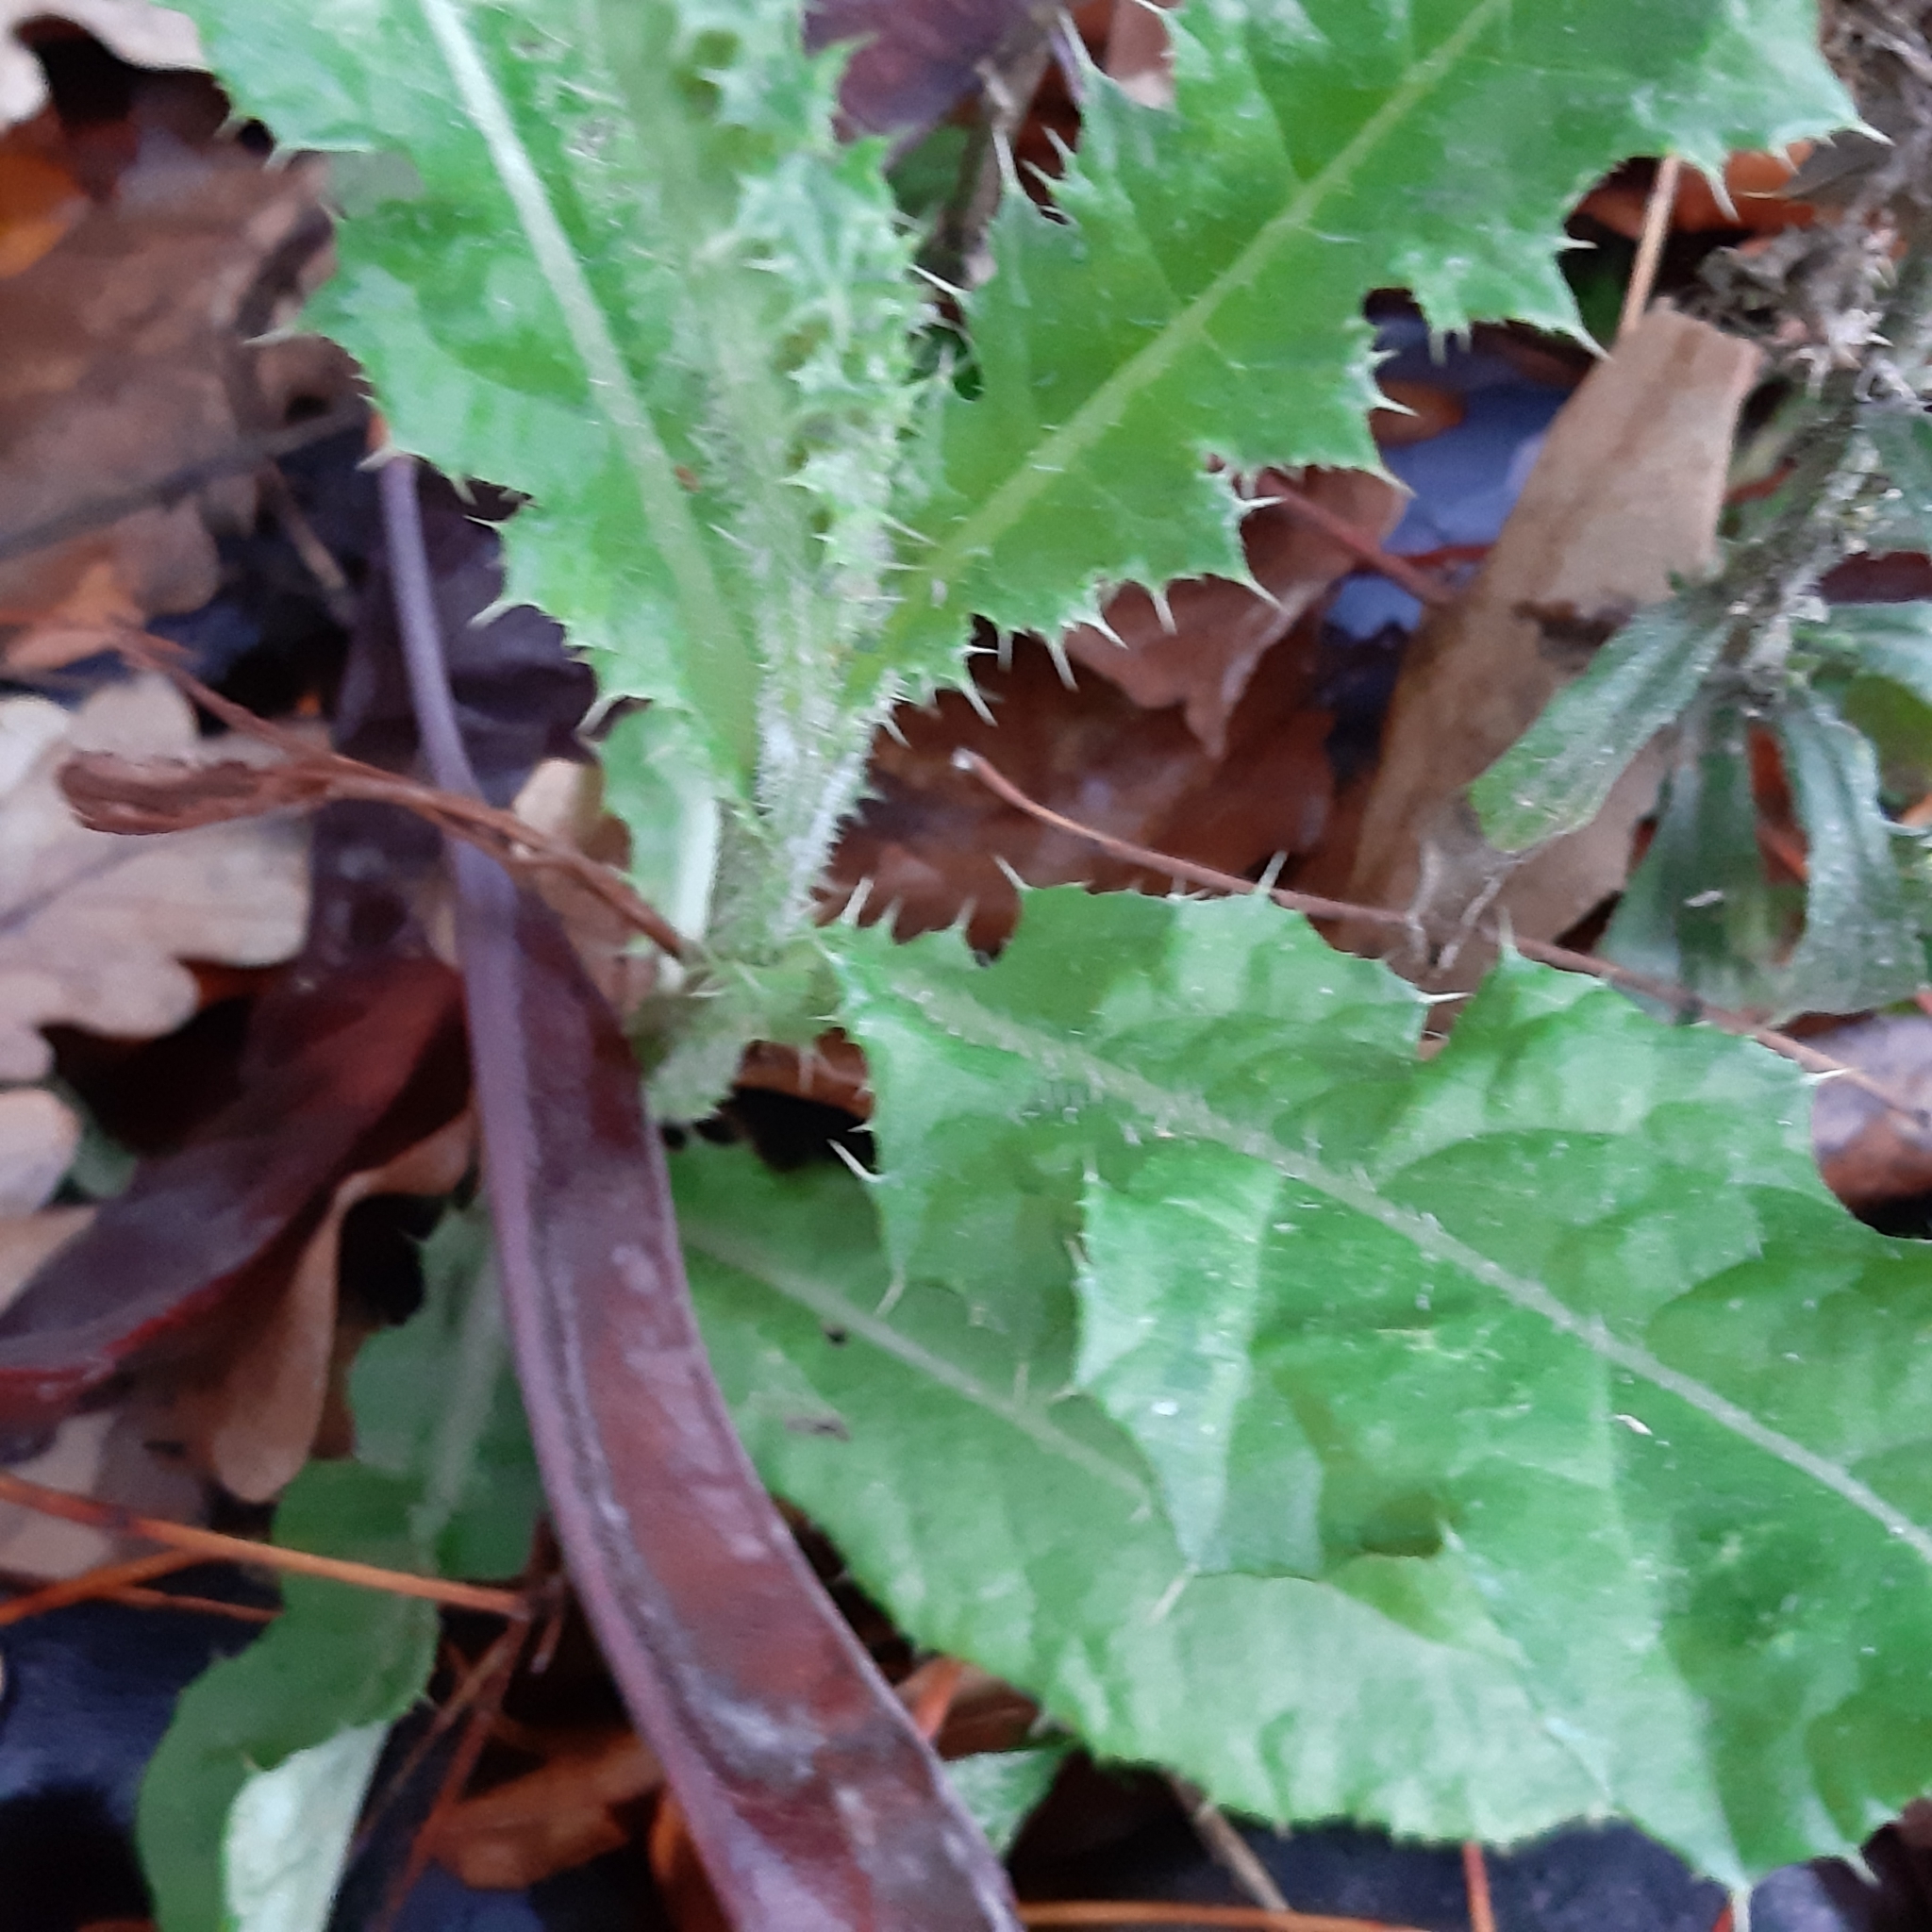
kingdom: Plantae
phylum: Tracheophyta
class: Magnoliopsida
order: Asterales
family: Asteraceae
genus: Cirsium
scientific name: Cirsium arvense
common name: Creeping thistle
